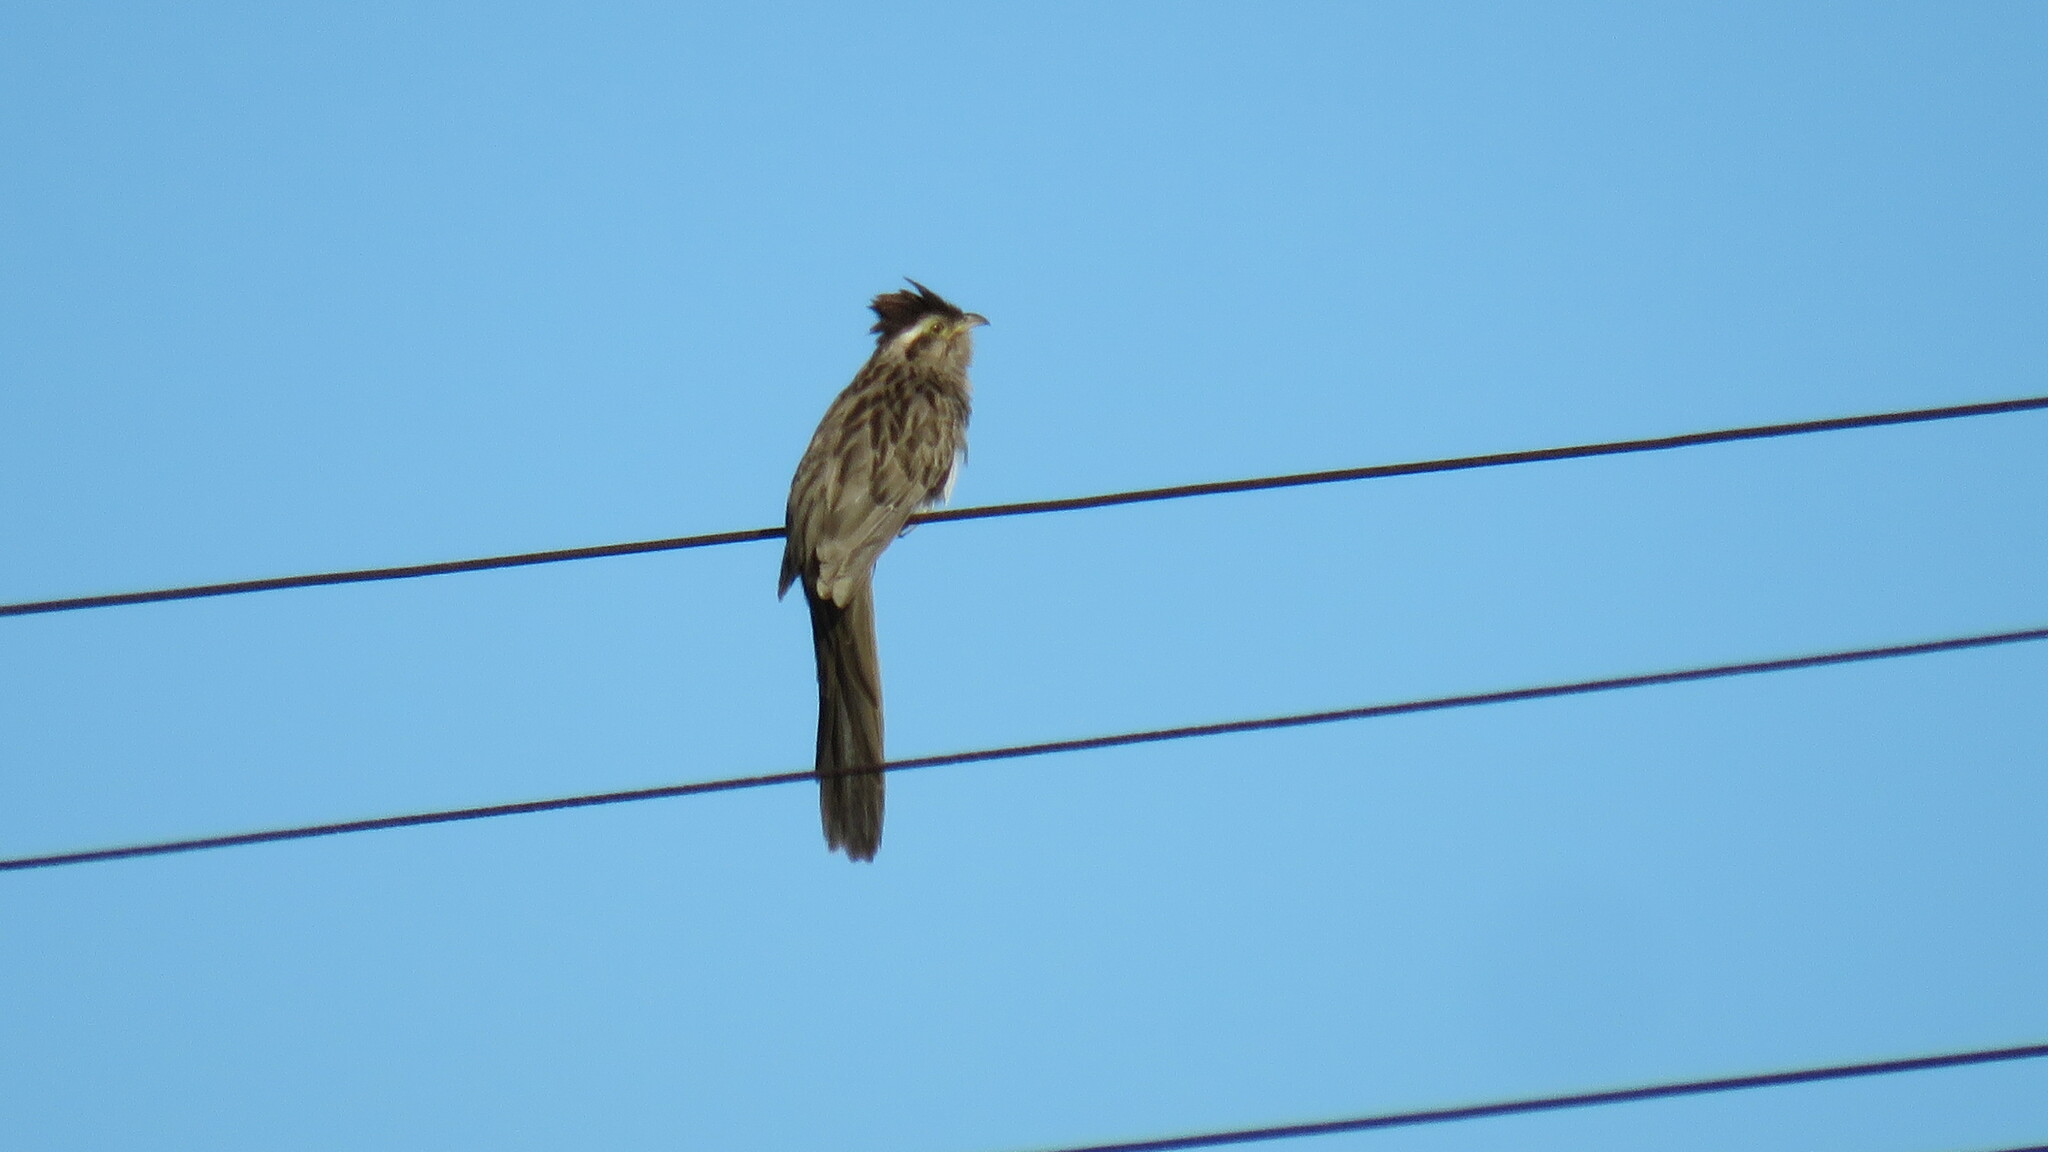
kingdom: Animalia
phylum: Chordata
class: Aves
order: Cuculiformes
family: Cuculidae
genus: Tapera
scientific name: Tapera naevia
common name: Striped cuckoo
